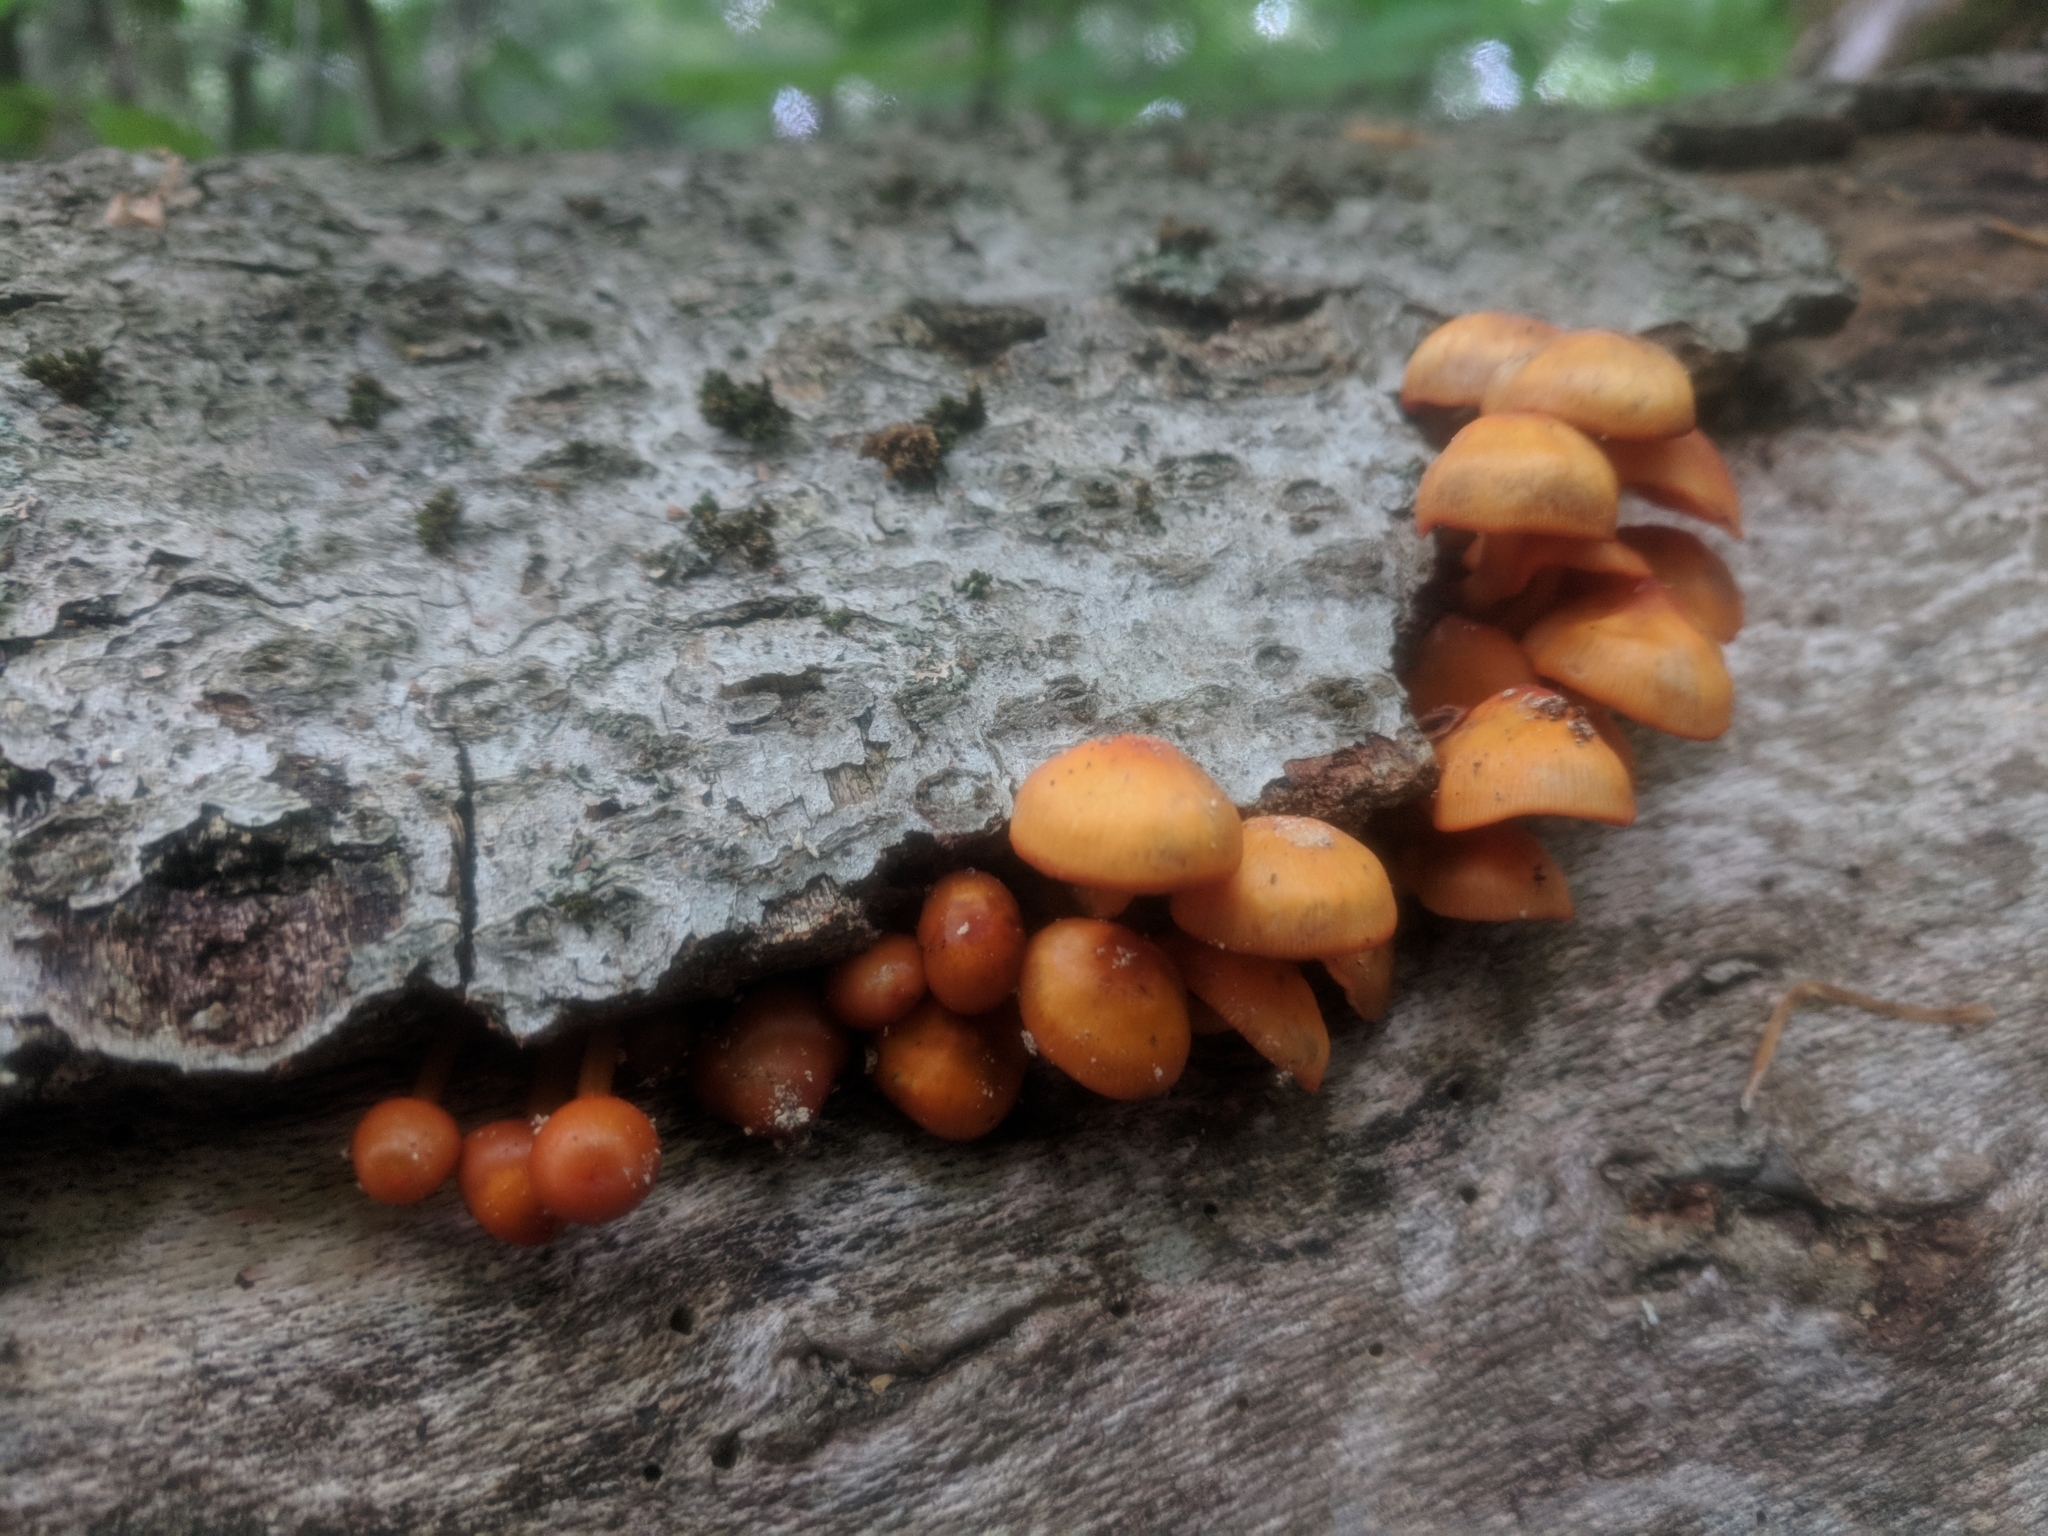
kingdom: Fungi
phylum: Basidiomycota
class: Agaricomycetes
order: Agaricales
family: Mycenaceae
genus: Mycena
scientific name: Mycena leaiana
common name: Orange mycena
